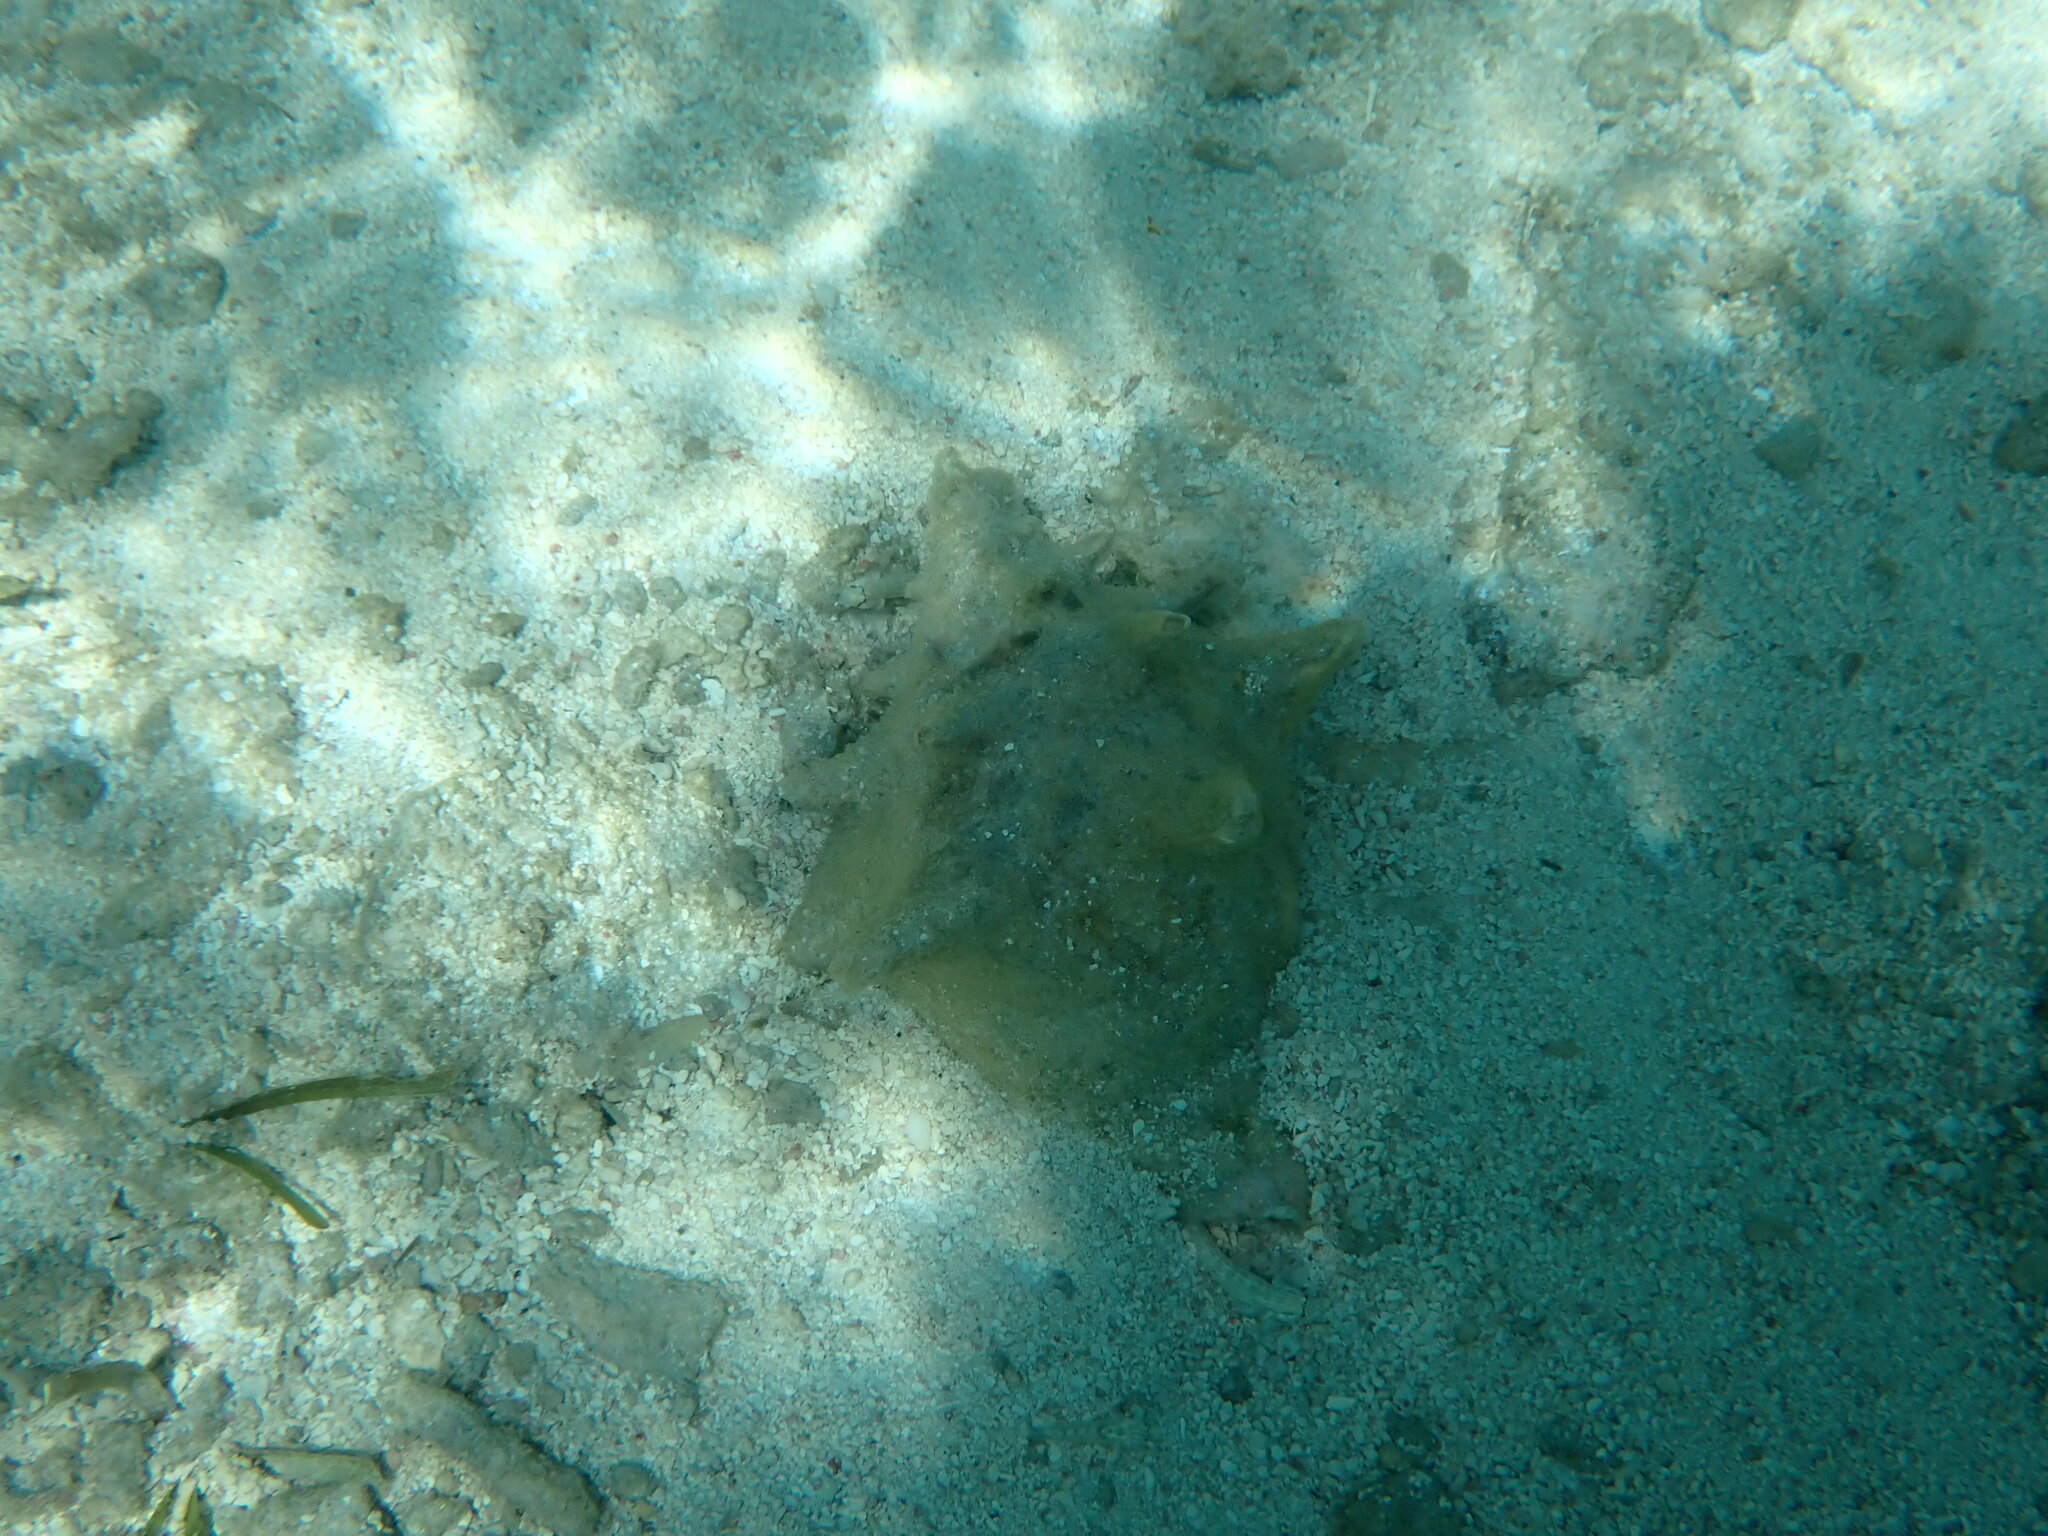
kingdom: Animalia
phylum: Mollusca
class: Gastropoda
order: Littorinimorpha
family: Strombidae
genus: Aliger
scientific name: Aliger gigas
